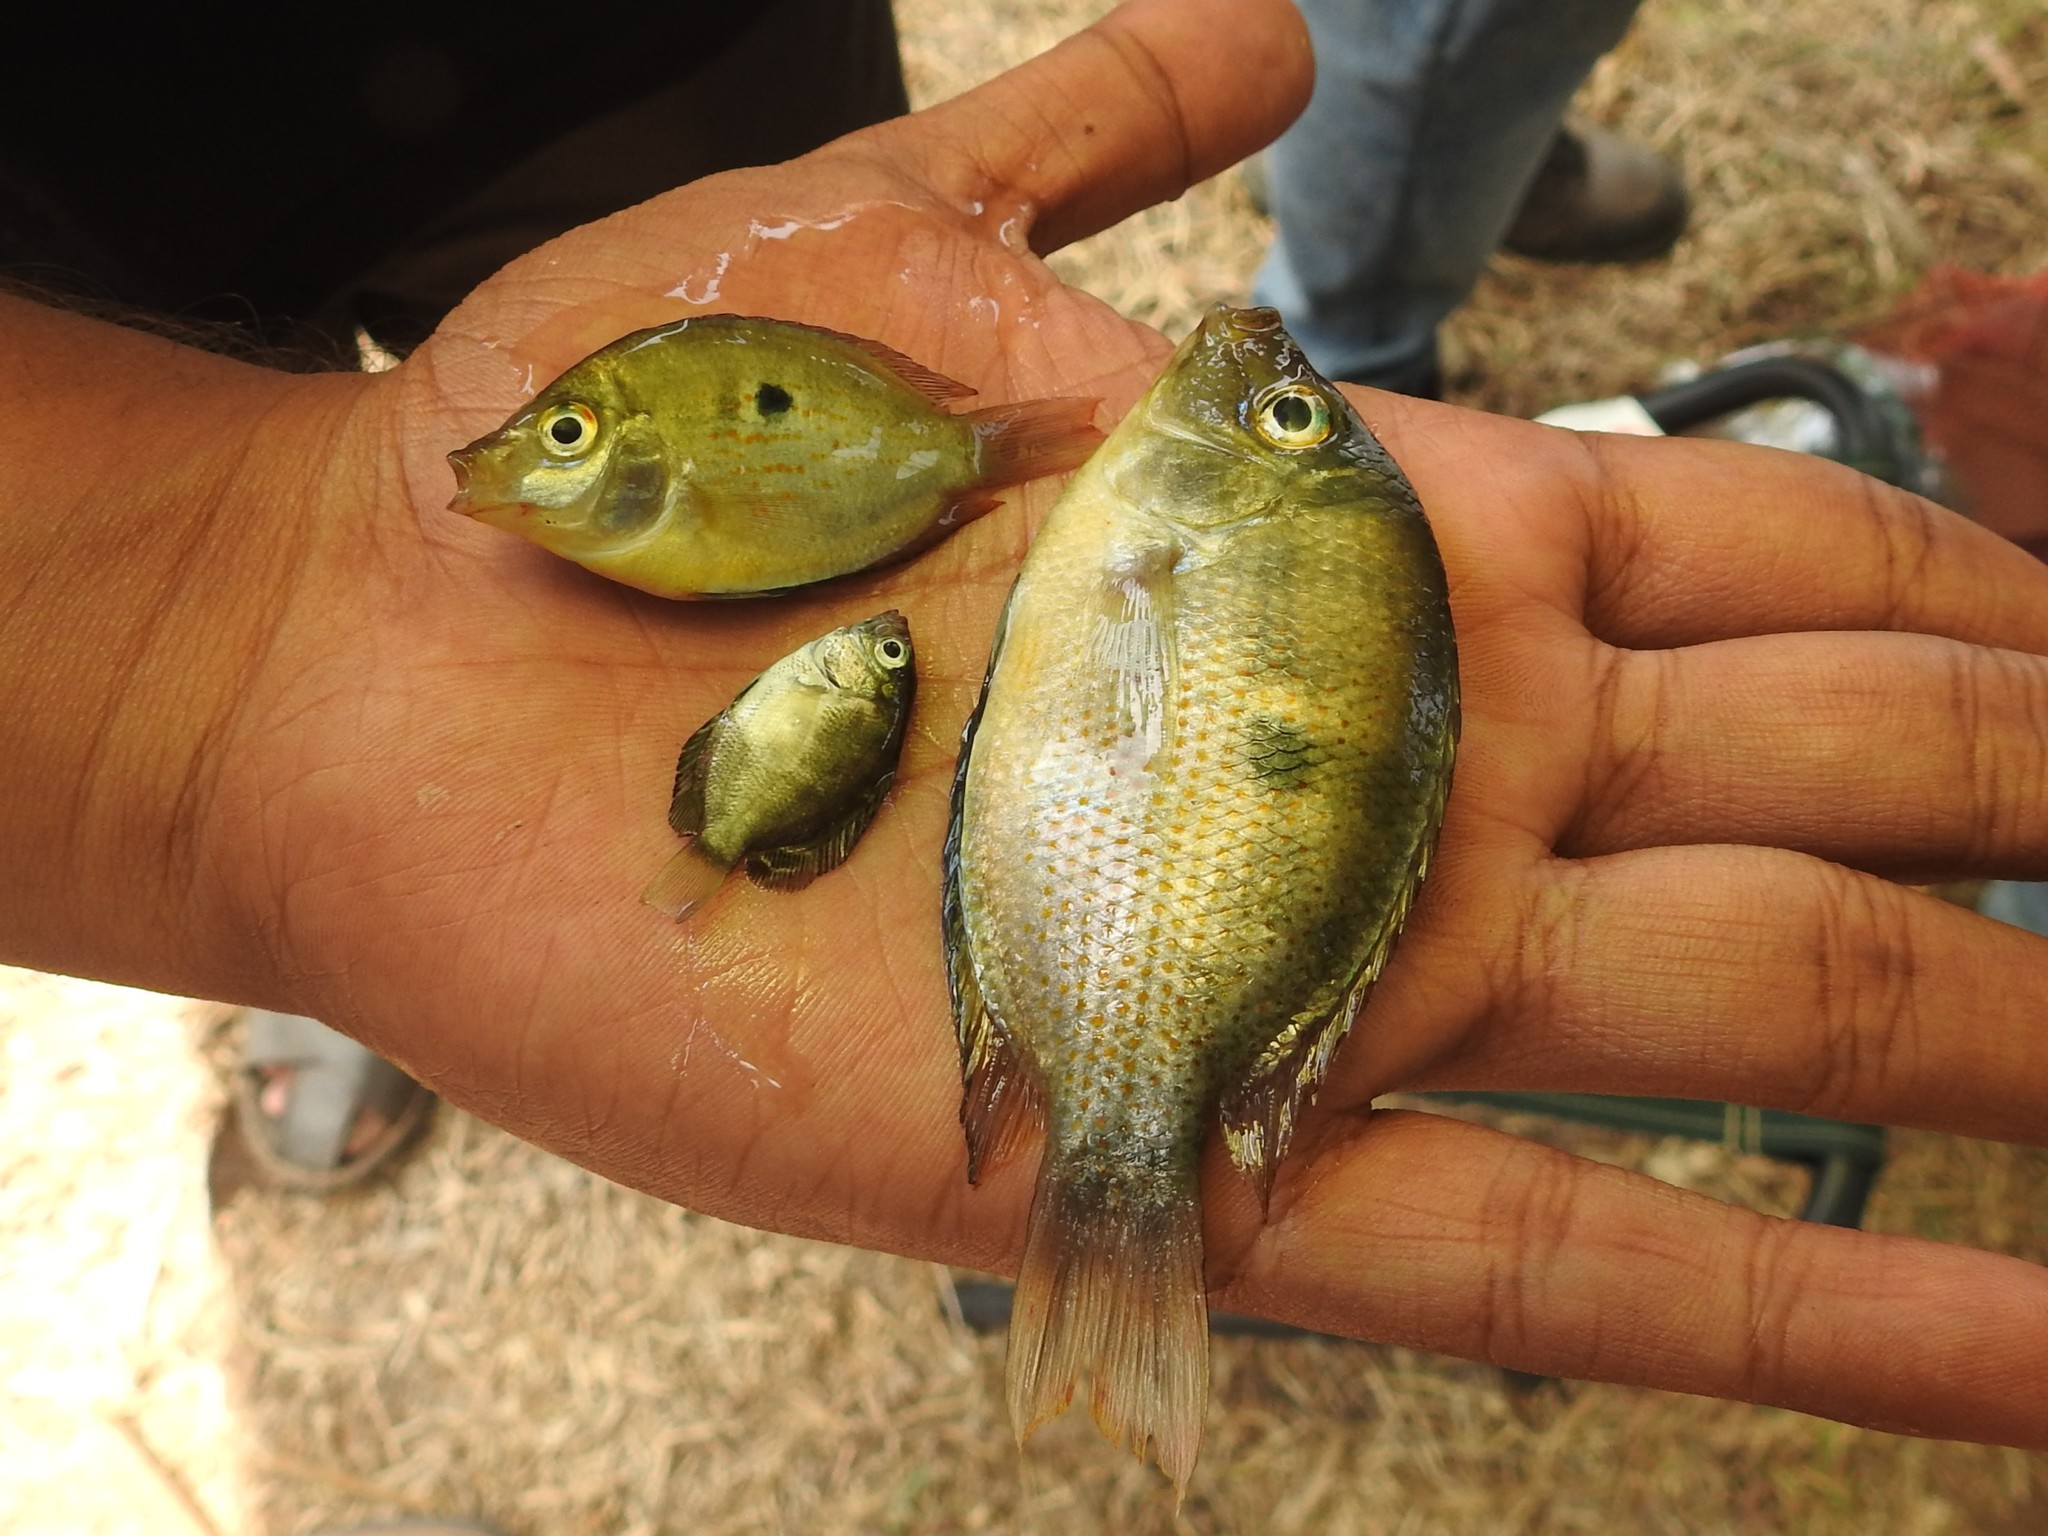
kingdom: Animalia
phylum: Chordata
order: Perciformes
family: Cichlidae
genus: Etroplus
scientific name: Etroplus maculatus
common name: Orange chromide
